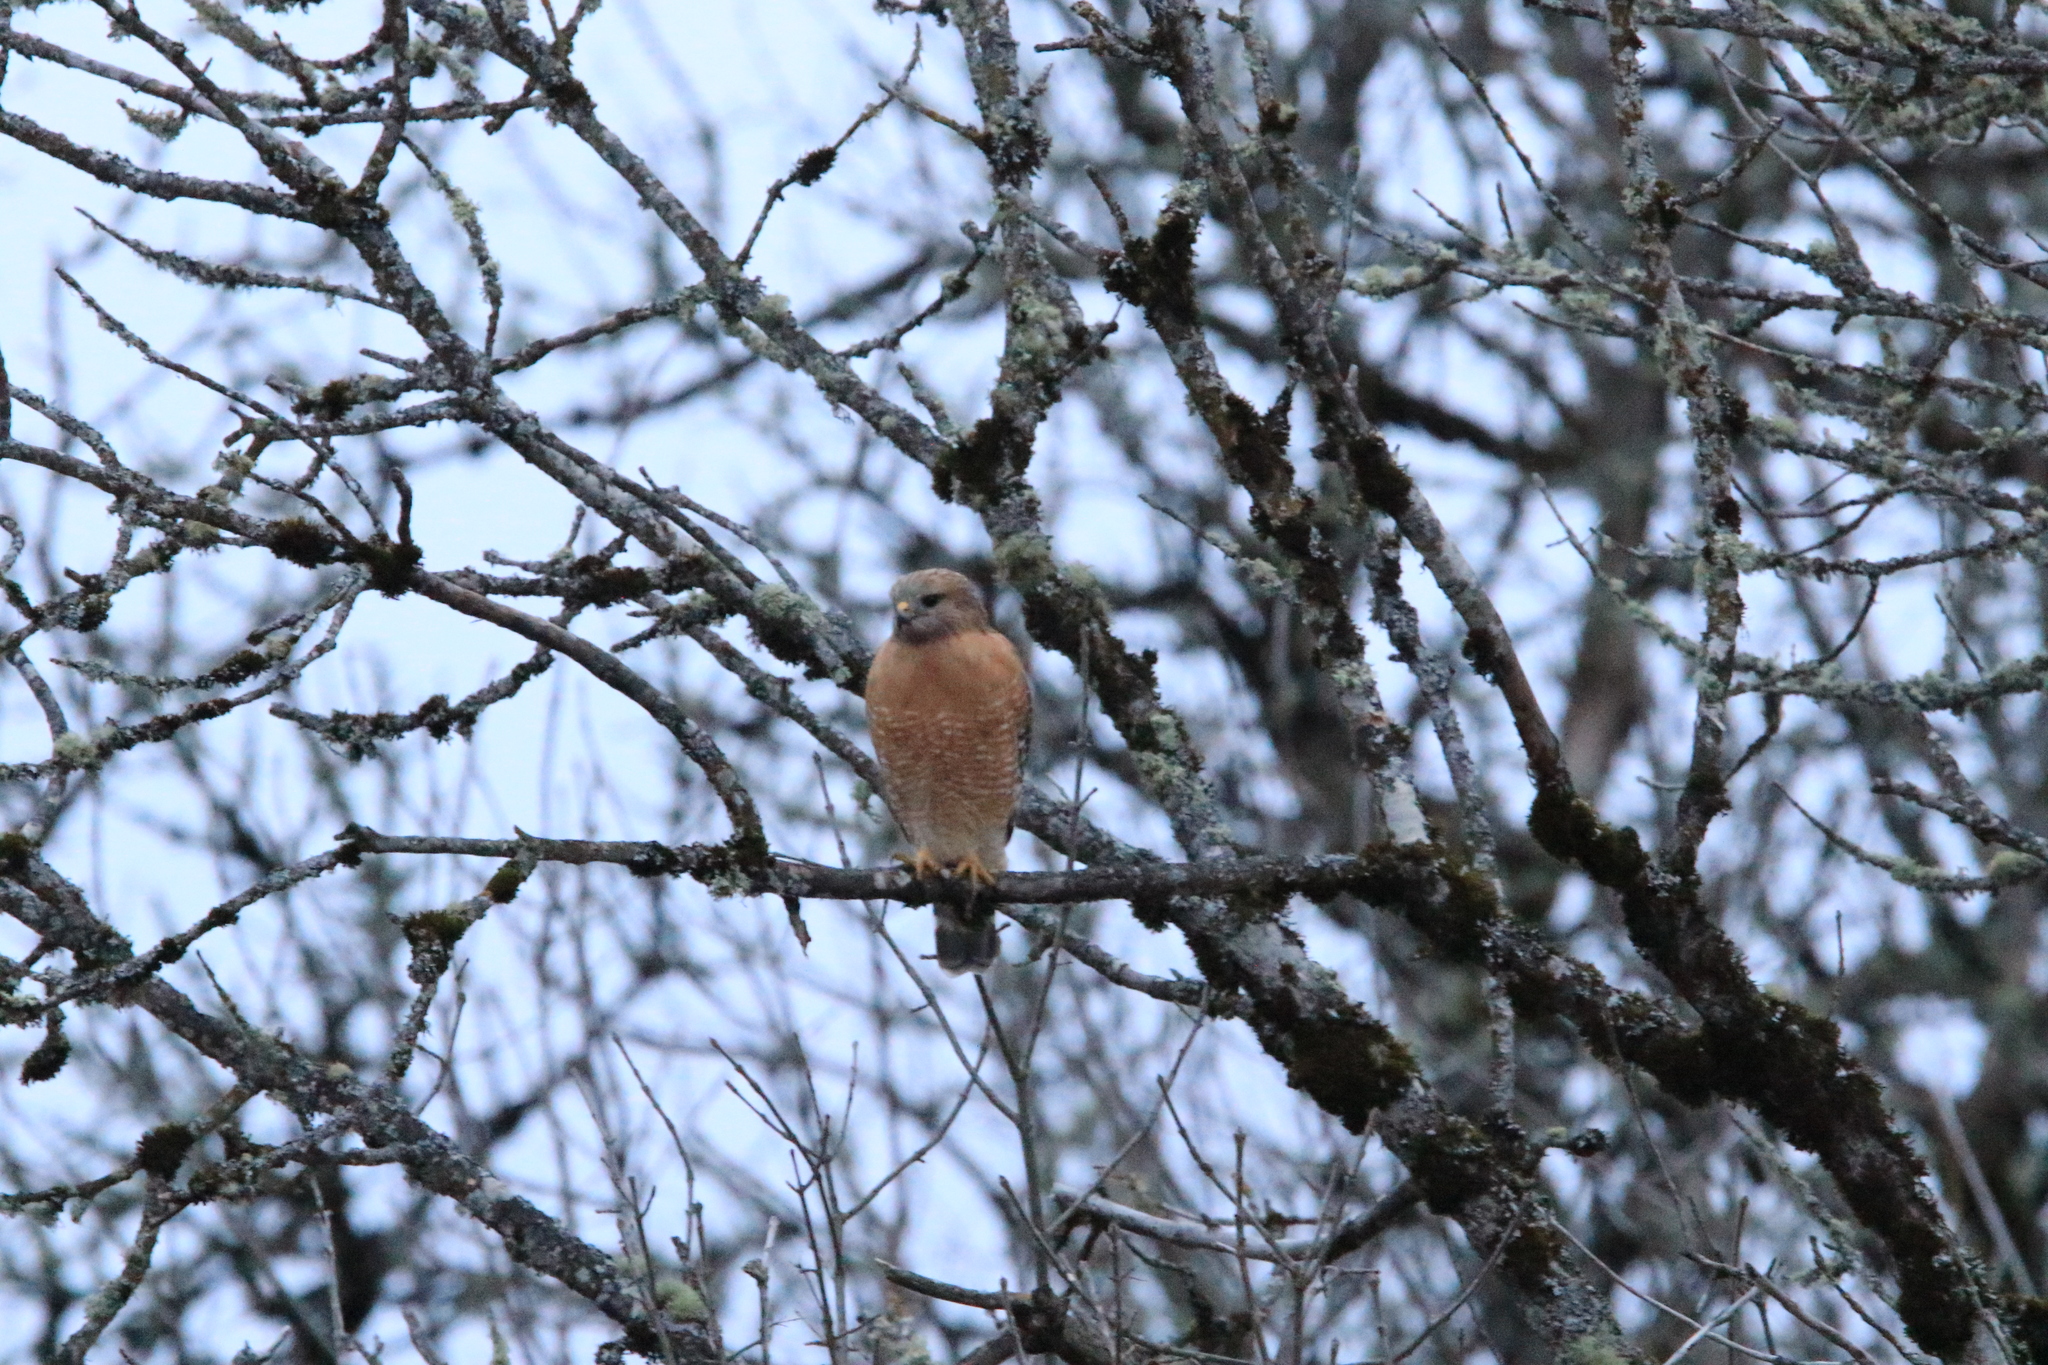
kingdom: Animalia
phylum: Chordata
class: Aves
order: Accipitriformes
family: Accipitridae
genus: Buteo
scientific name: Buteo lineatus
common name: Red-shouldered hawk
